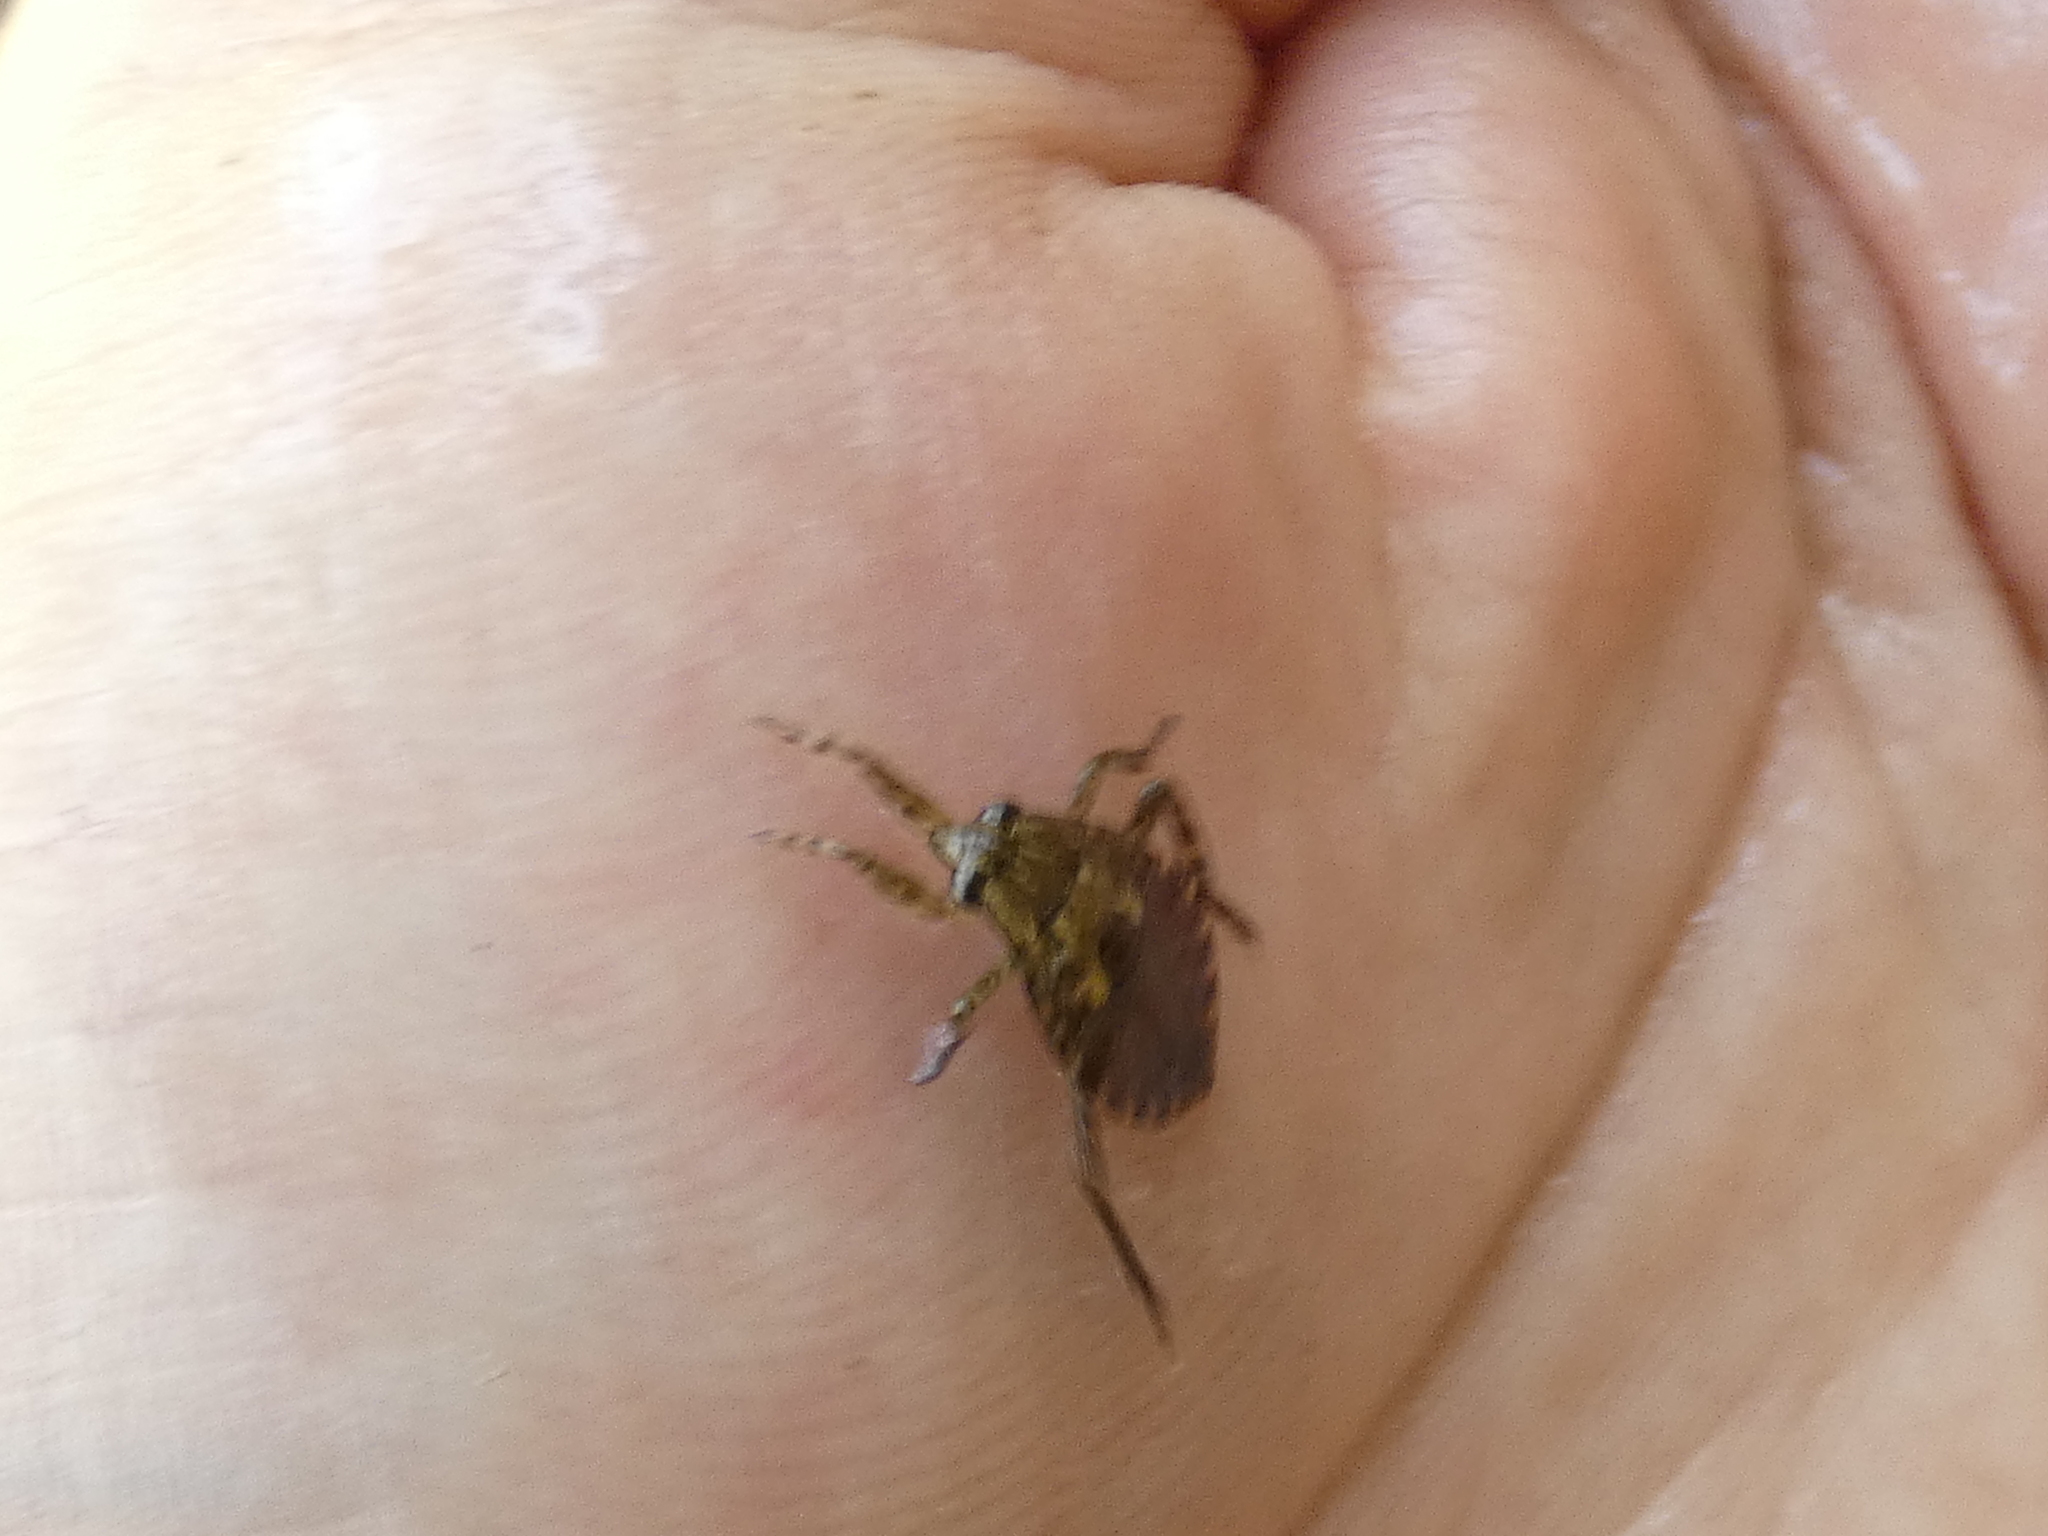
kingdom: Animalia
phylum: Arthropoda
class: Insecta
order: Hemiptera
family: Belostomatidae
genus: Belostoma
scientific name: Belostoma
